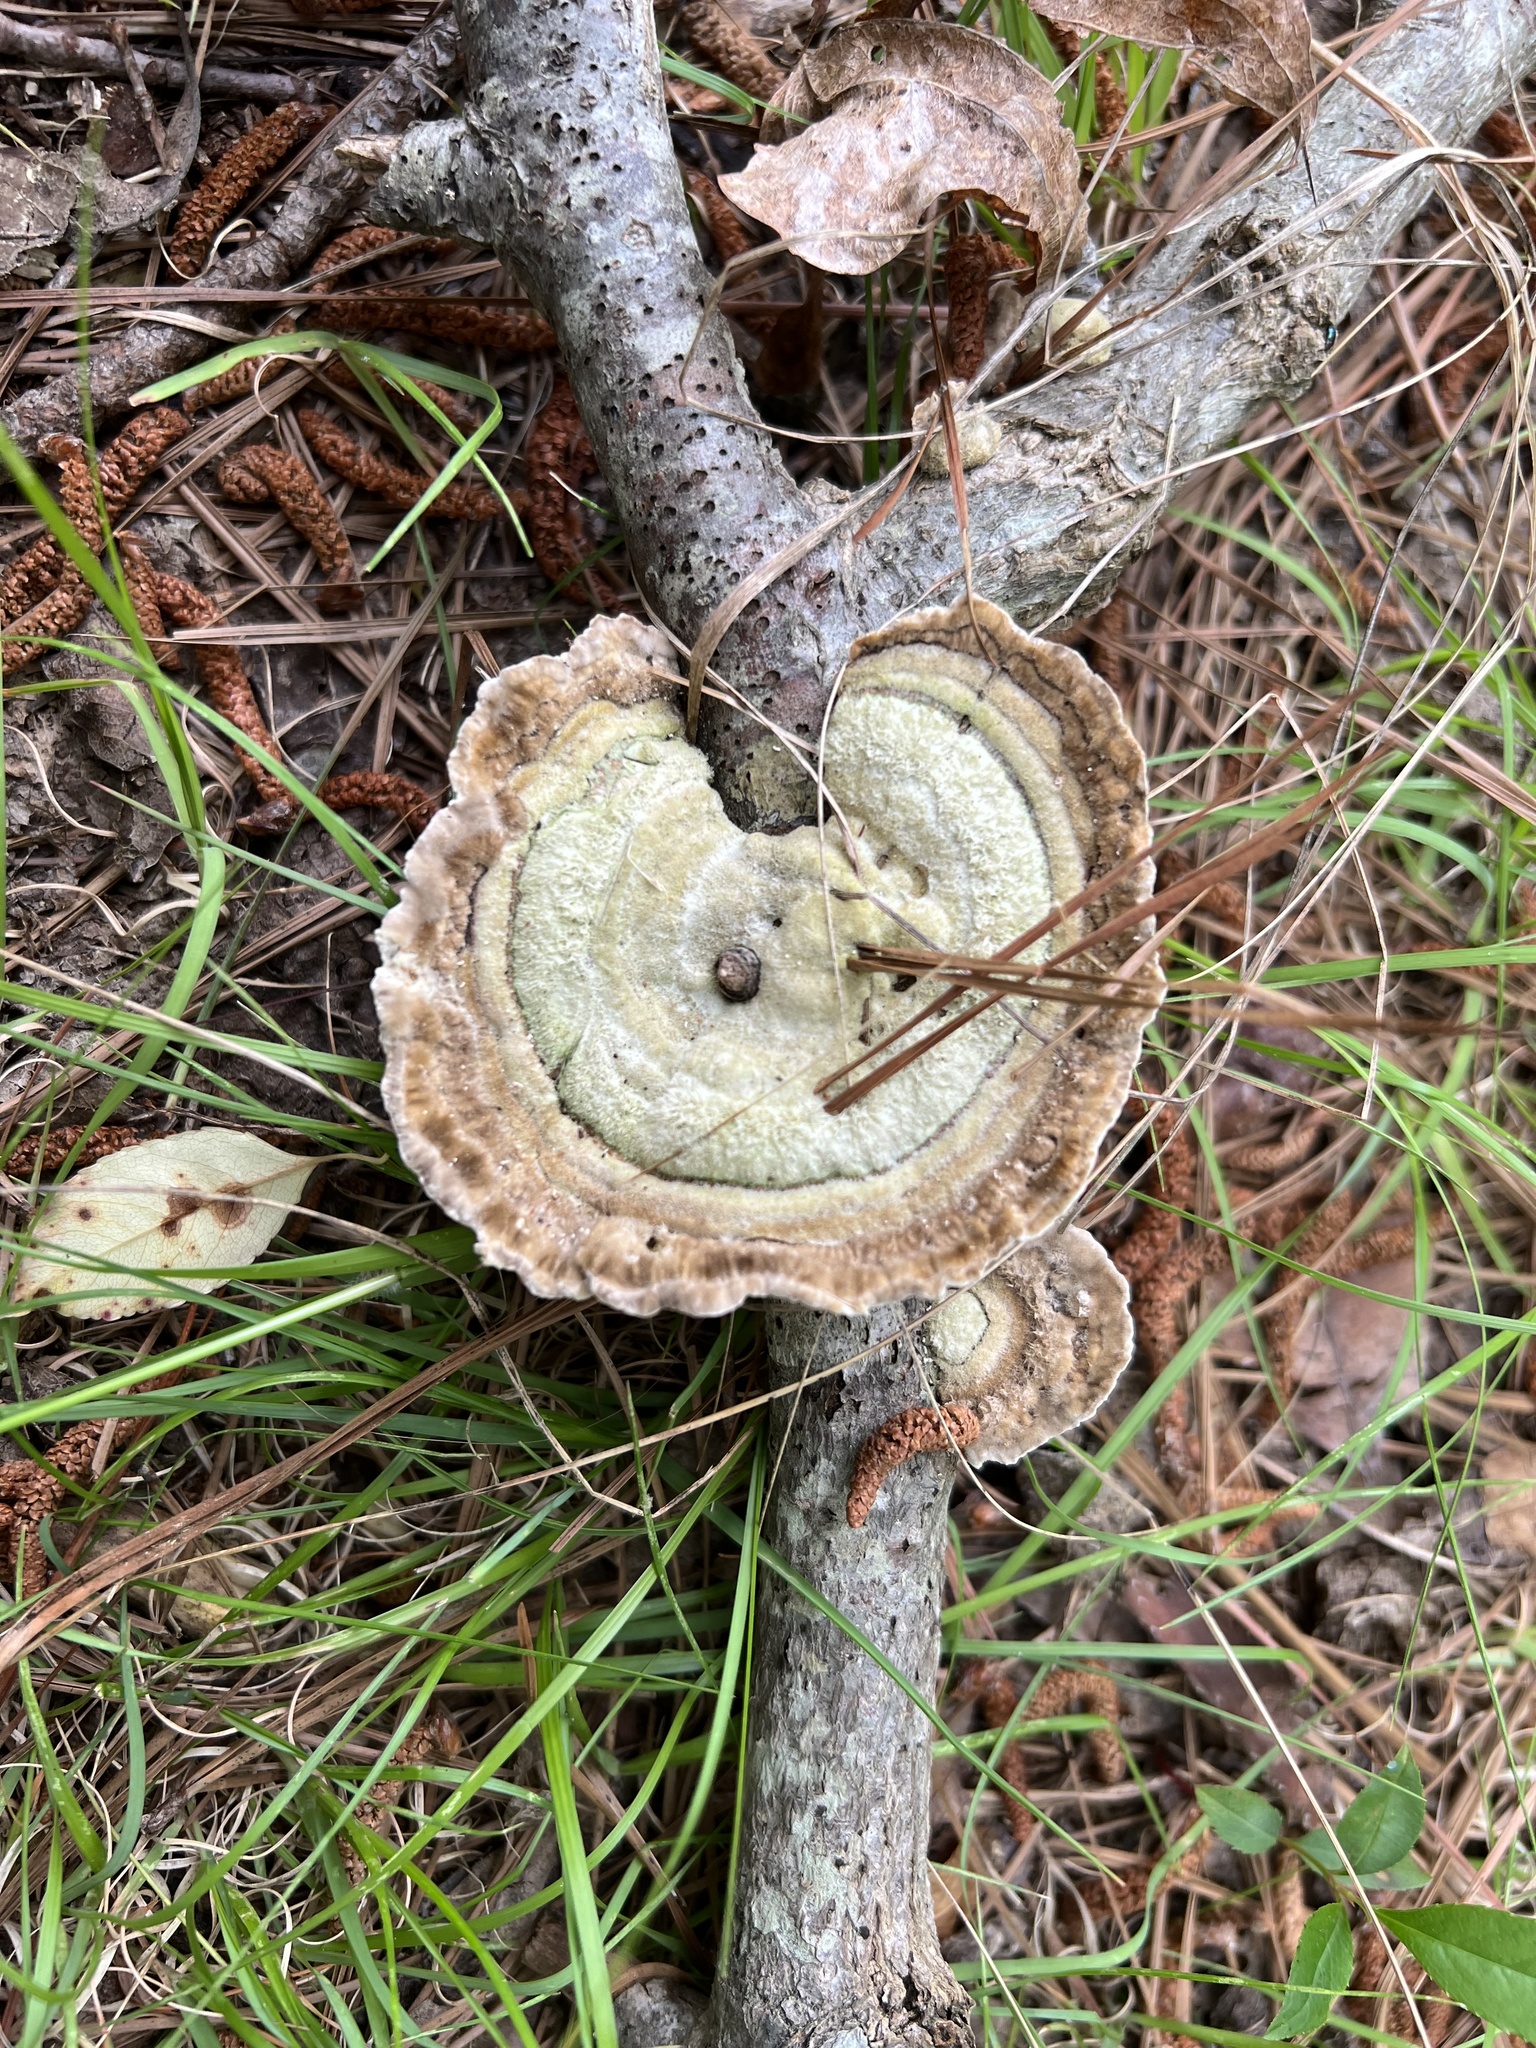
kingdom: Fungi
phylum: Basidiomycota
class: Agaricomycetes
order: Polyporales
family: Polyporaceae
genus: Trametes
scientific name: Trametes hirsuta
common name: Hairy bracket
